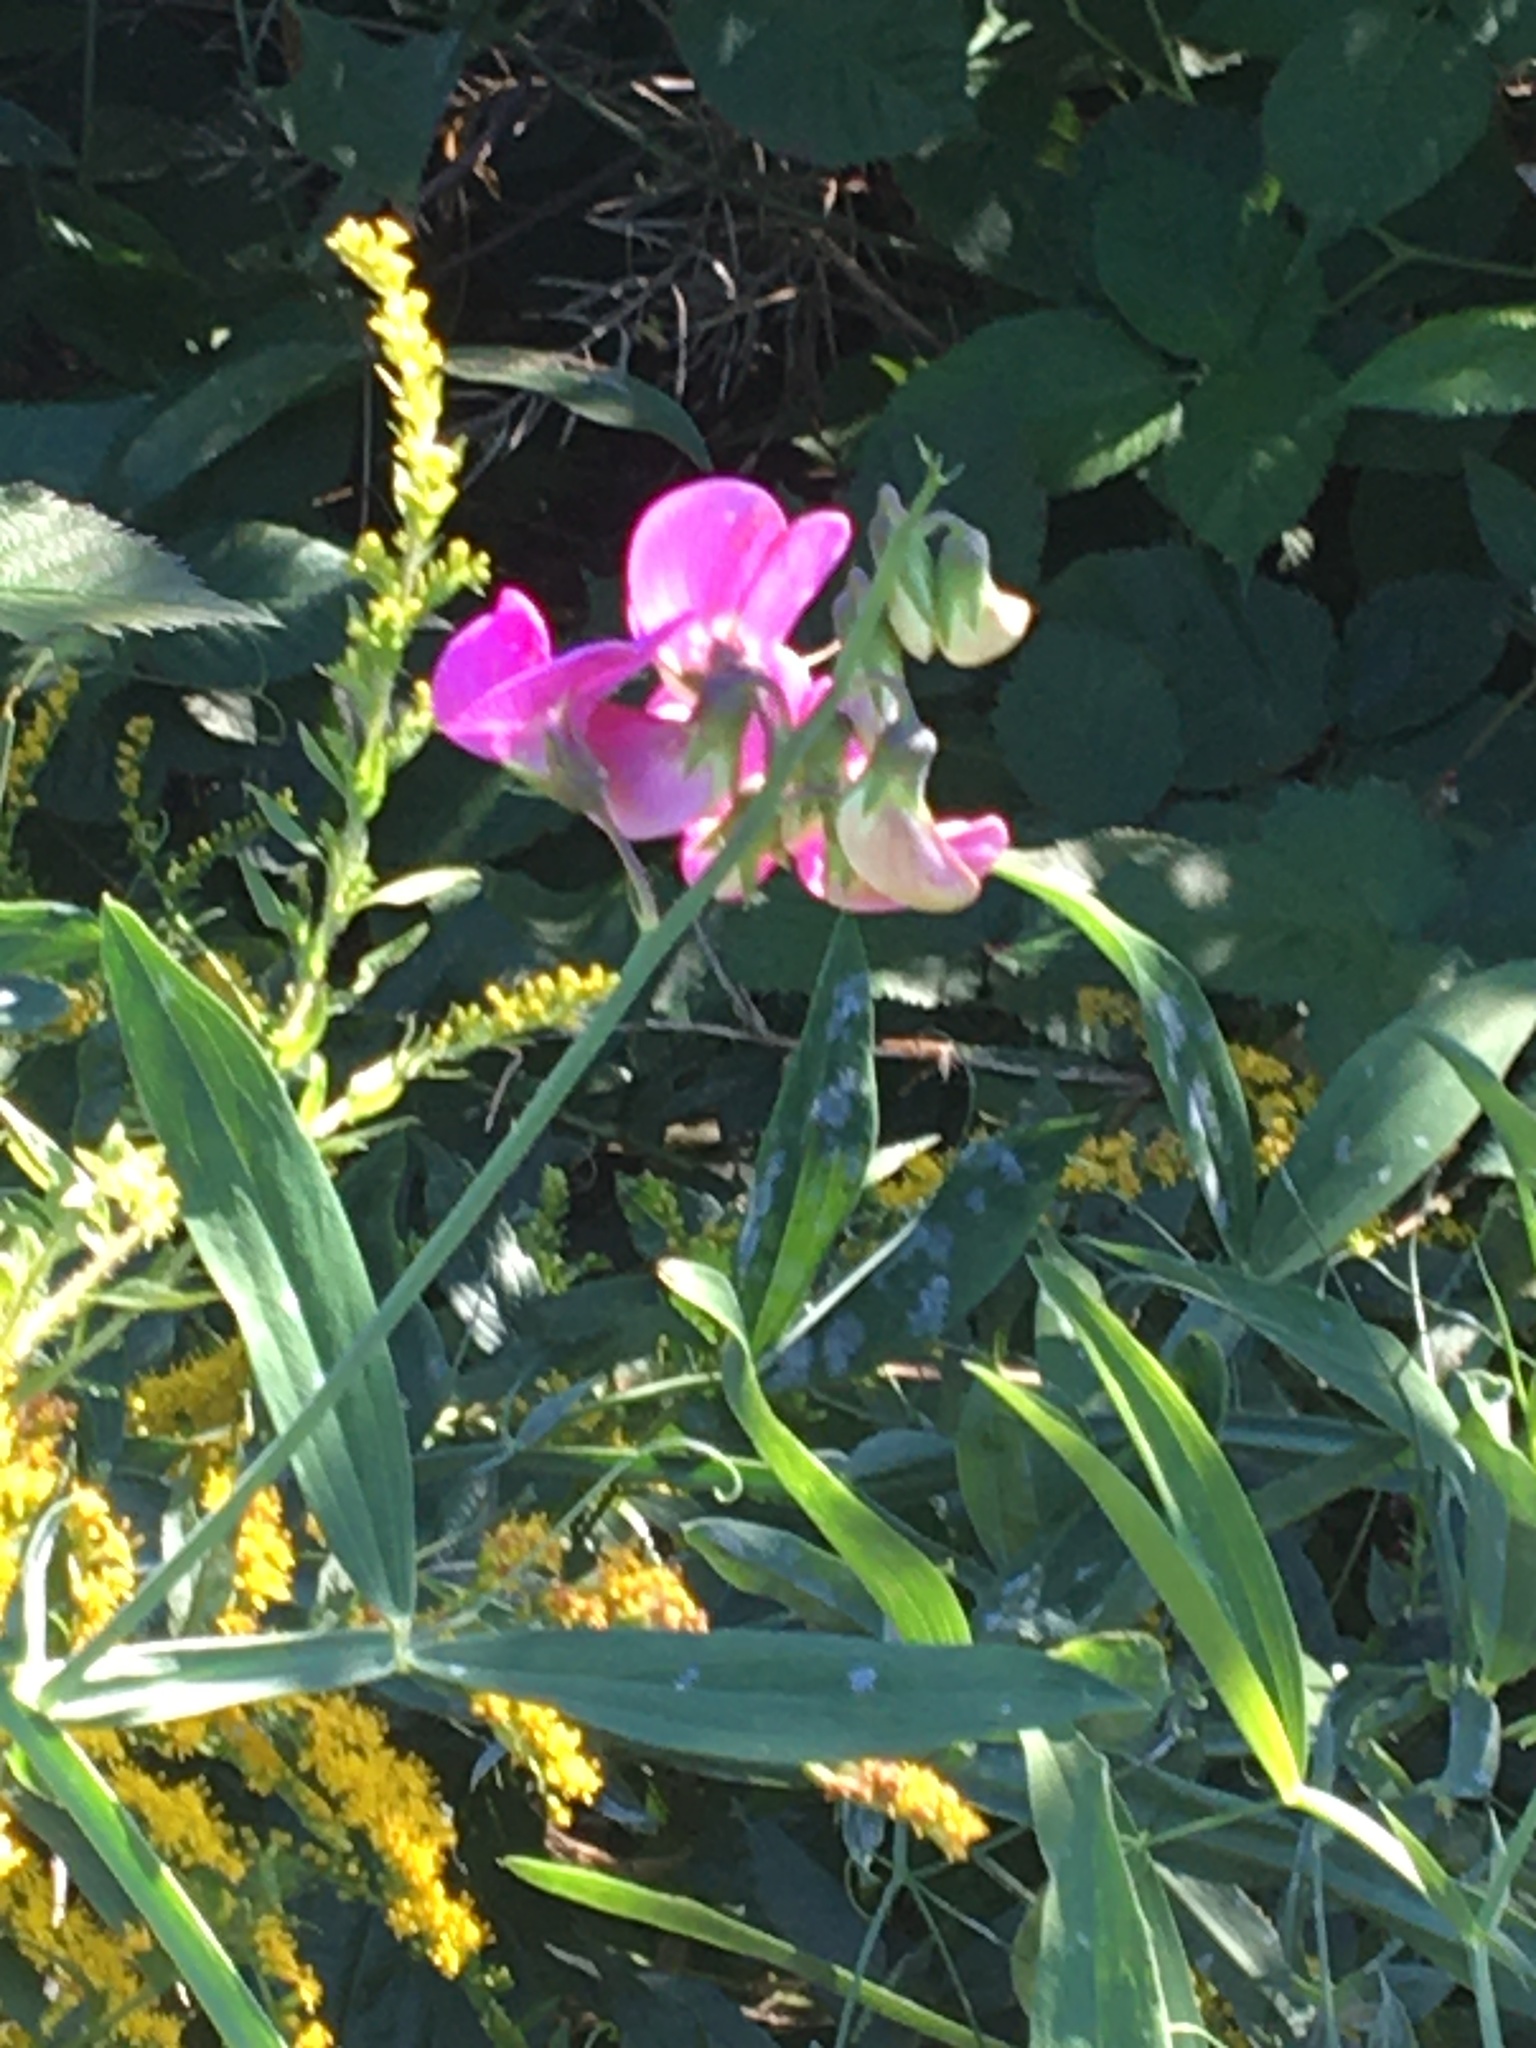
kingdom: Plantae
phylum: Tracheophyta
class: Magnoliopsida
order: Fabales
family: Fabaceae
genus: Lathyrus
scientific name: Lathyrus latifolius
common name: Perennial pea
